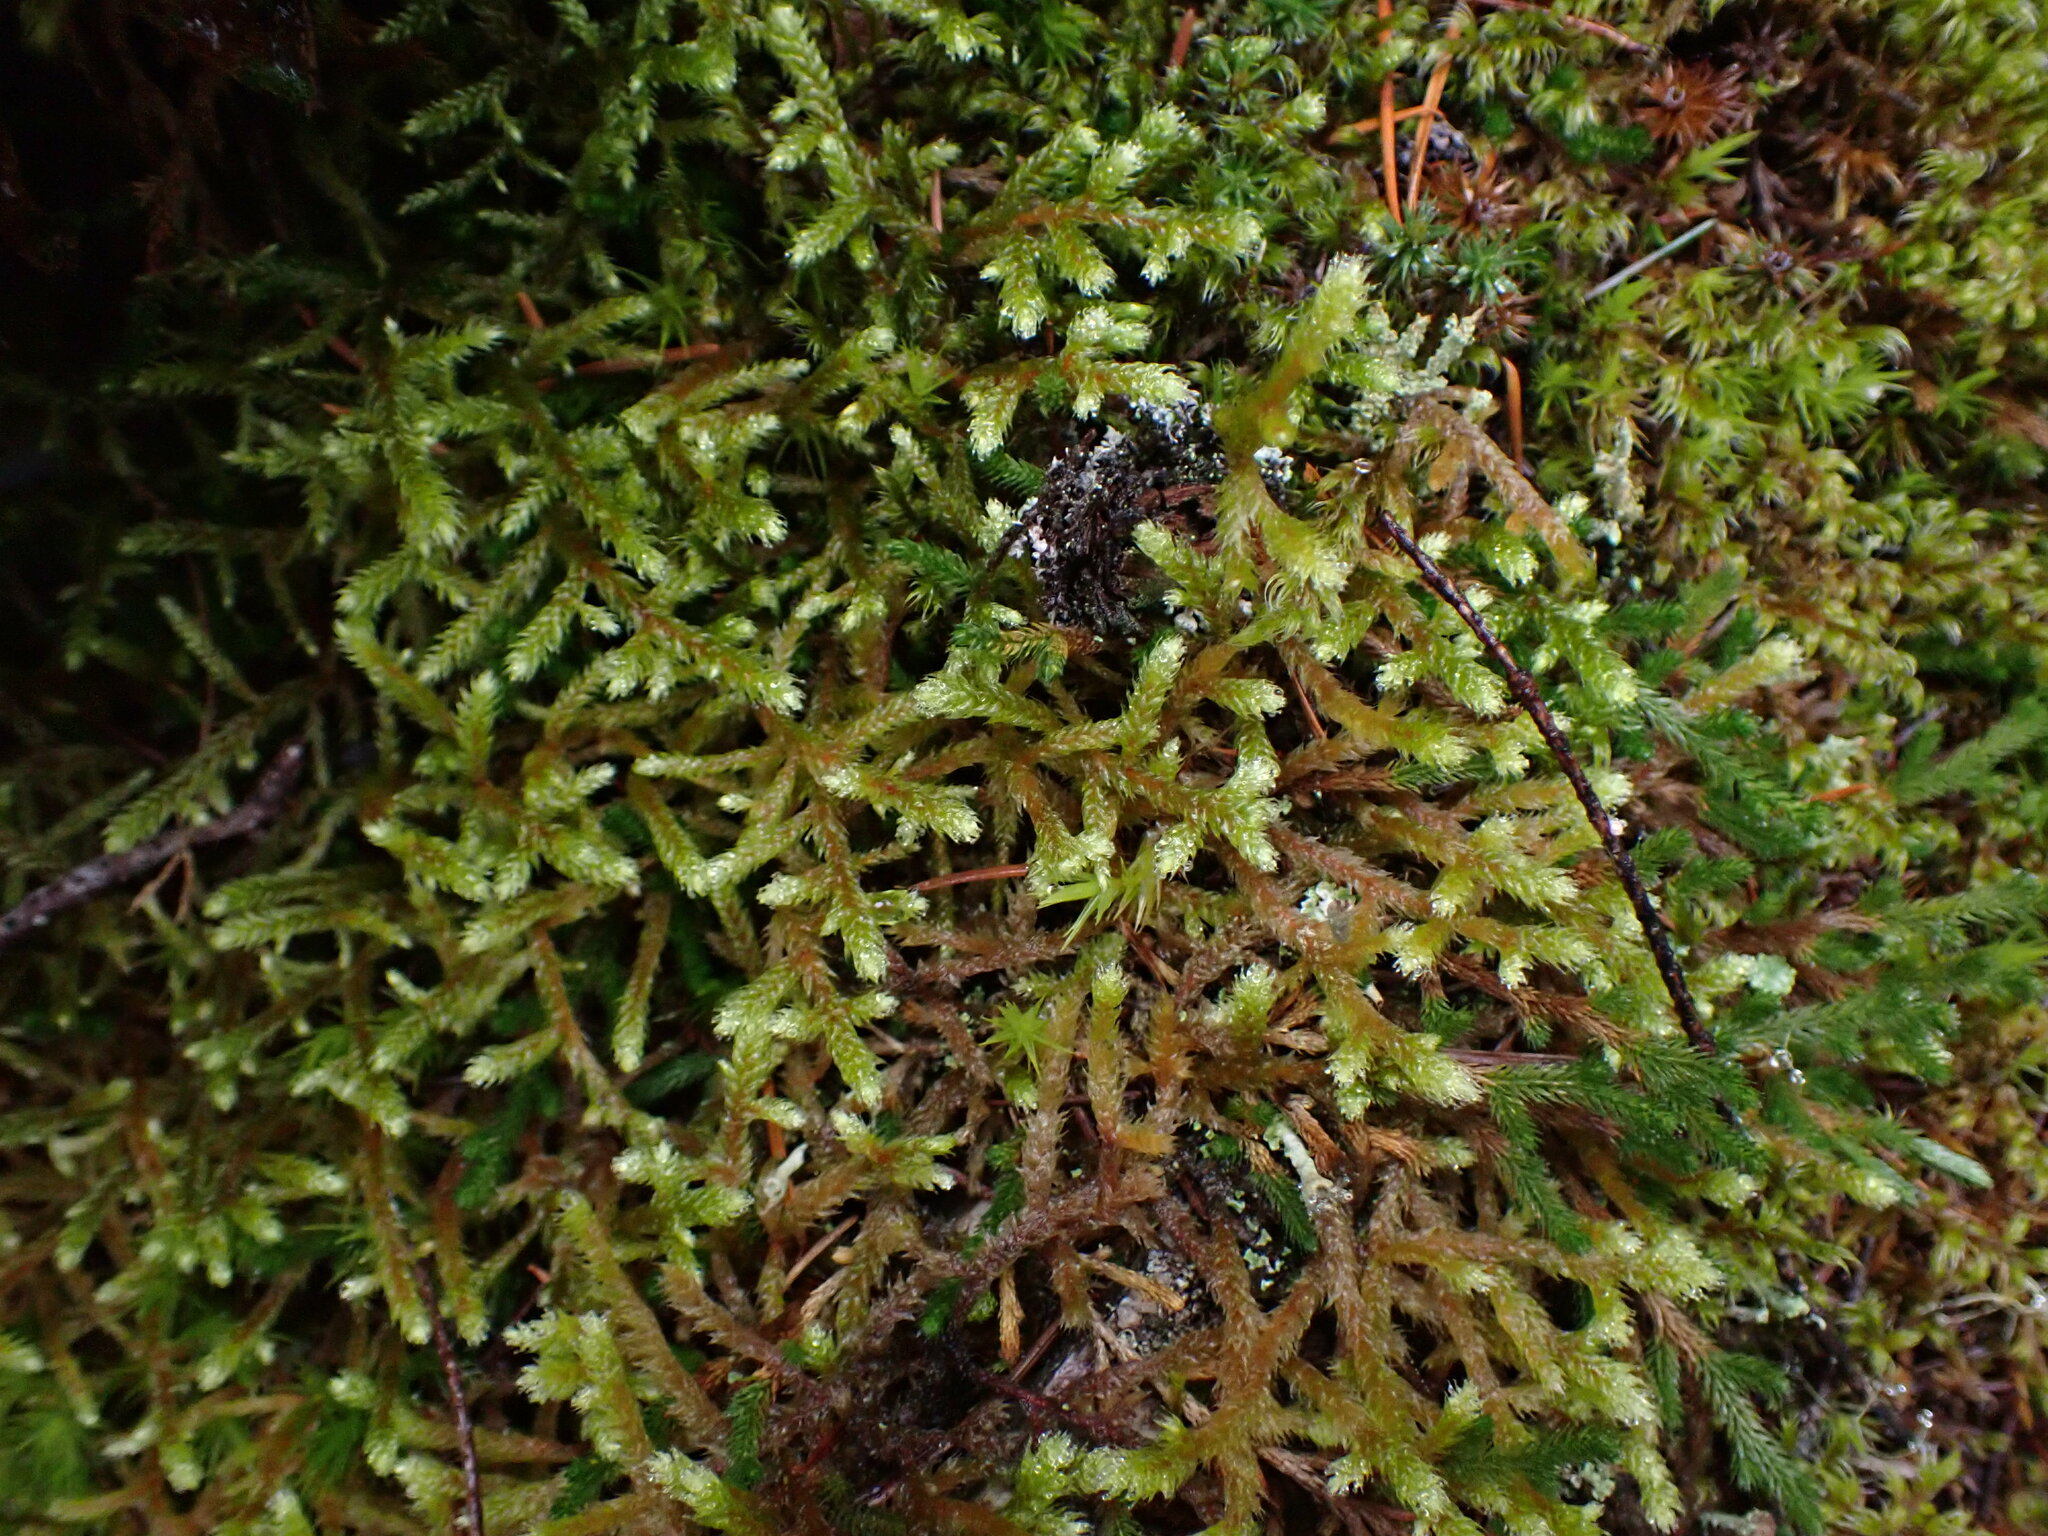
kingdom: Plantae
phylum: Bryophyta
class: Bryopsida
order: Hypnales
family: Antitrichiaceae
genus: Antitrichia
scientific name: Antitrichia curtipendula
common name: Pendulous wing-moss
